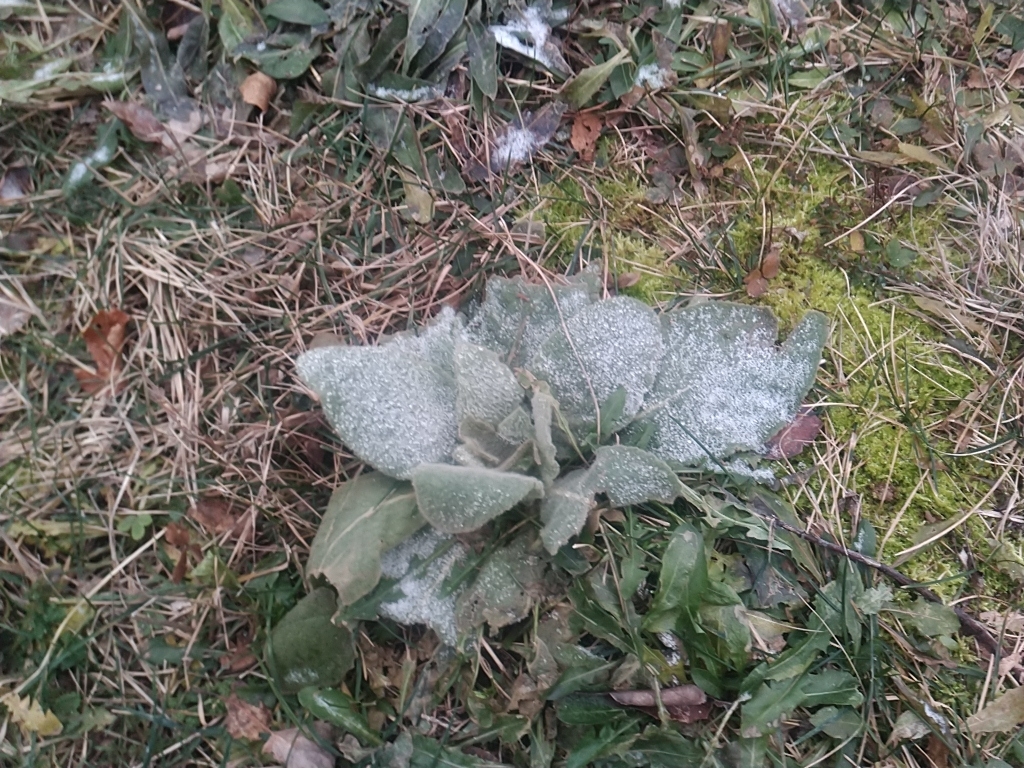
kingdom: Plantae
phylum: Tracheophyta
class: Magnoliopsida
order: Lamiales
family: Scrophulariaceae
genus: Verbascum
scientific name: Verbascum thapsus
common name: Common mullein
